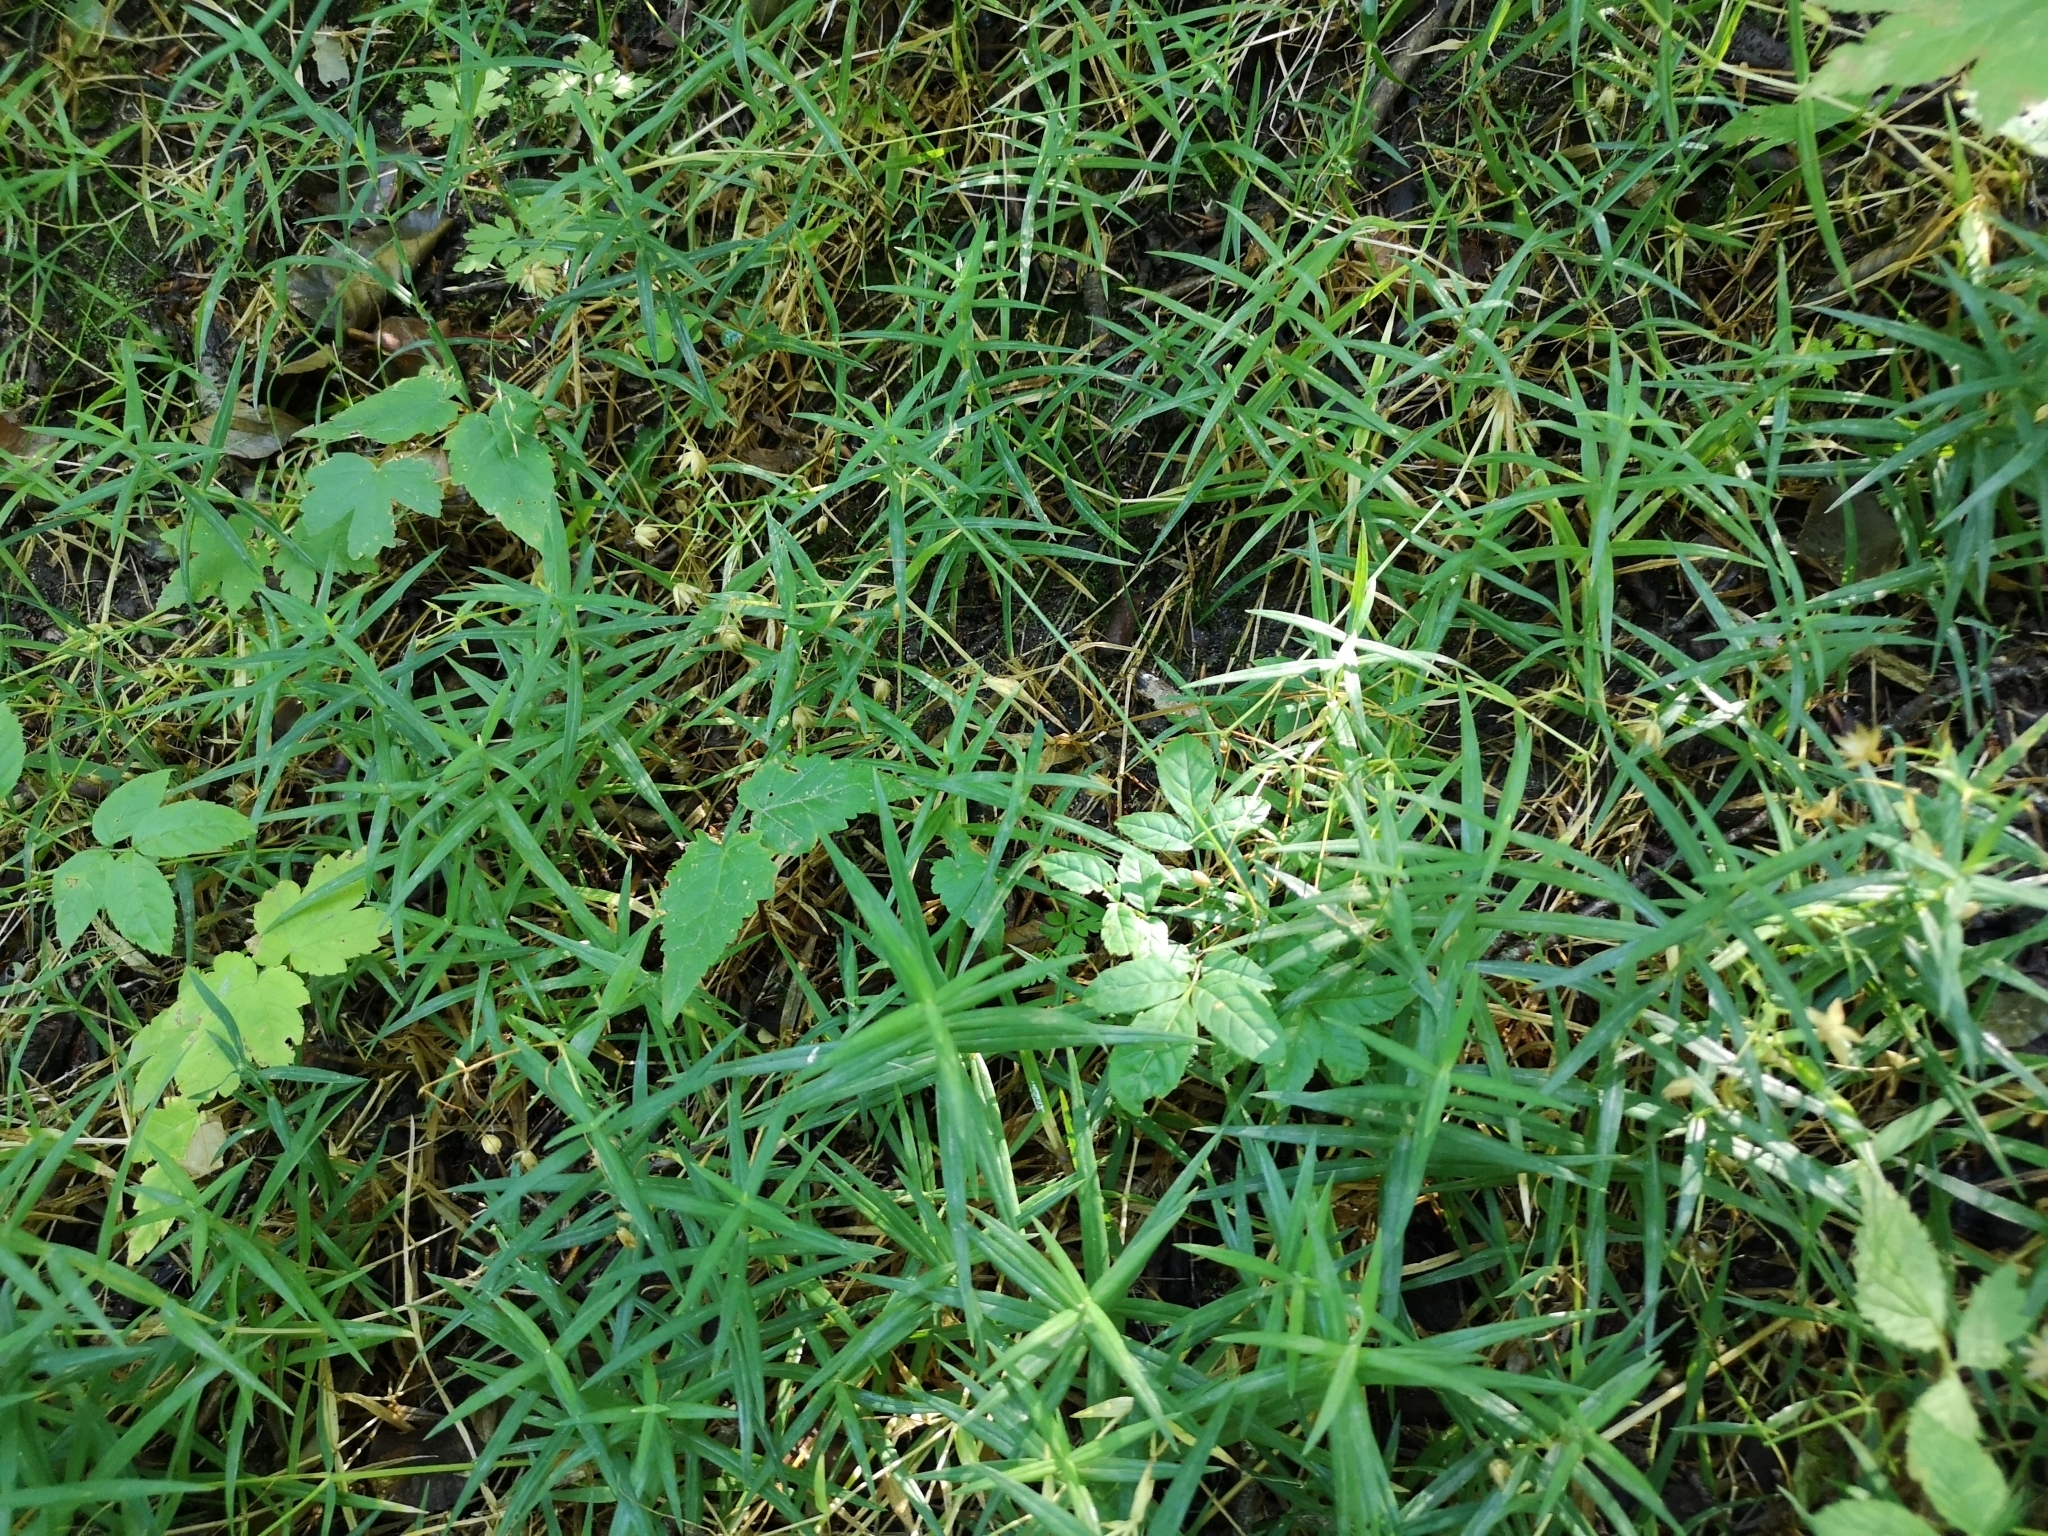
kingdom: Plantae
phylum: Tracheophyta
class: Magnoliopsida
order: Caryophyllales
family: Caryophyllaceae
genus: Rabelera
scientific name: Rabelera holostea
